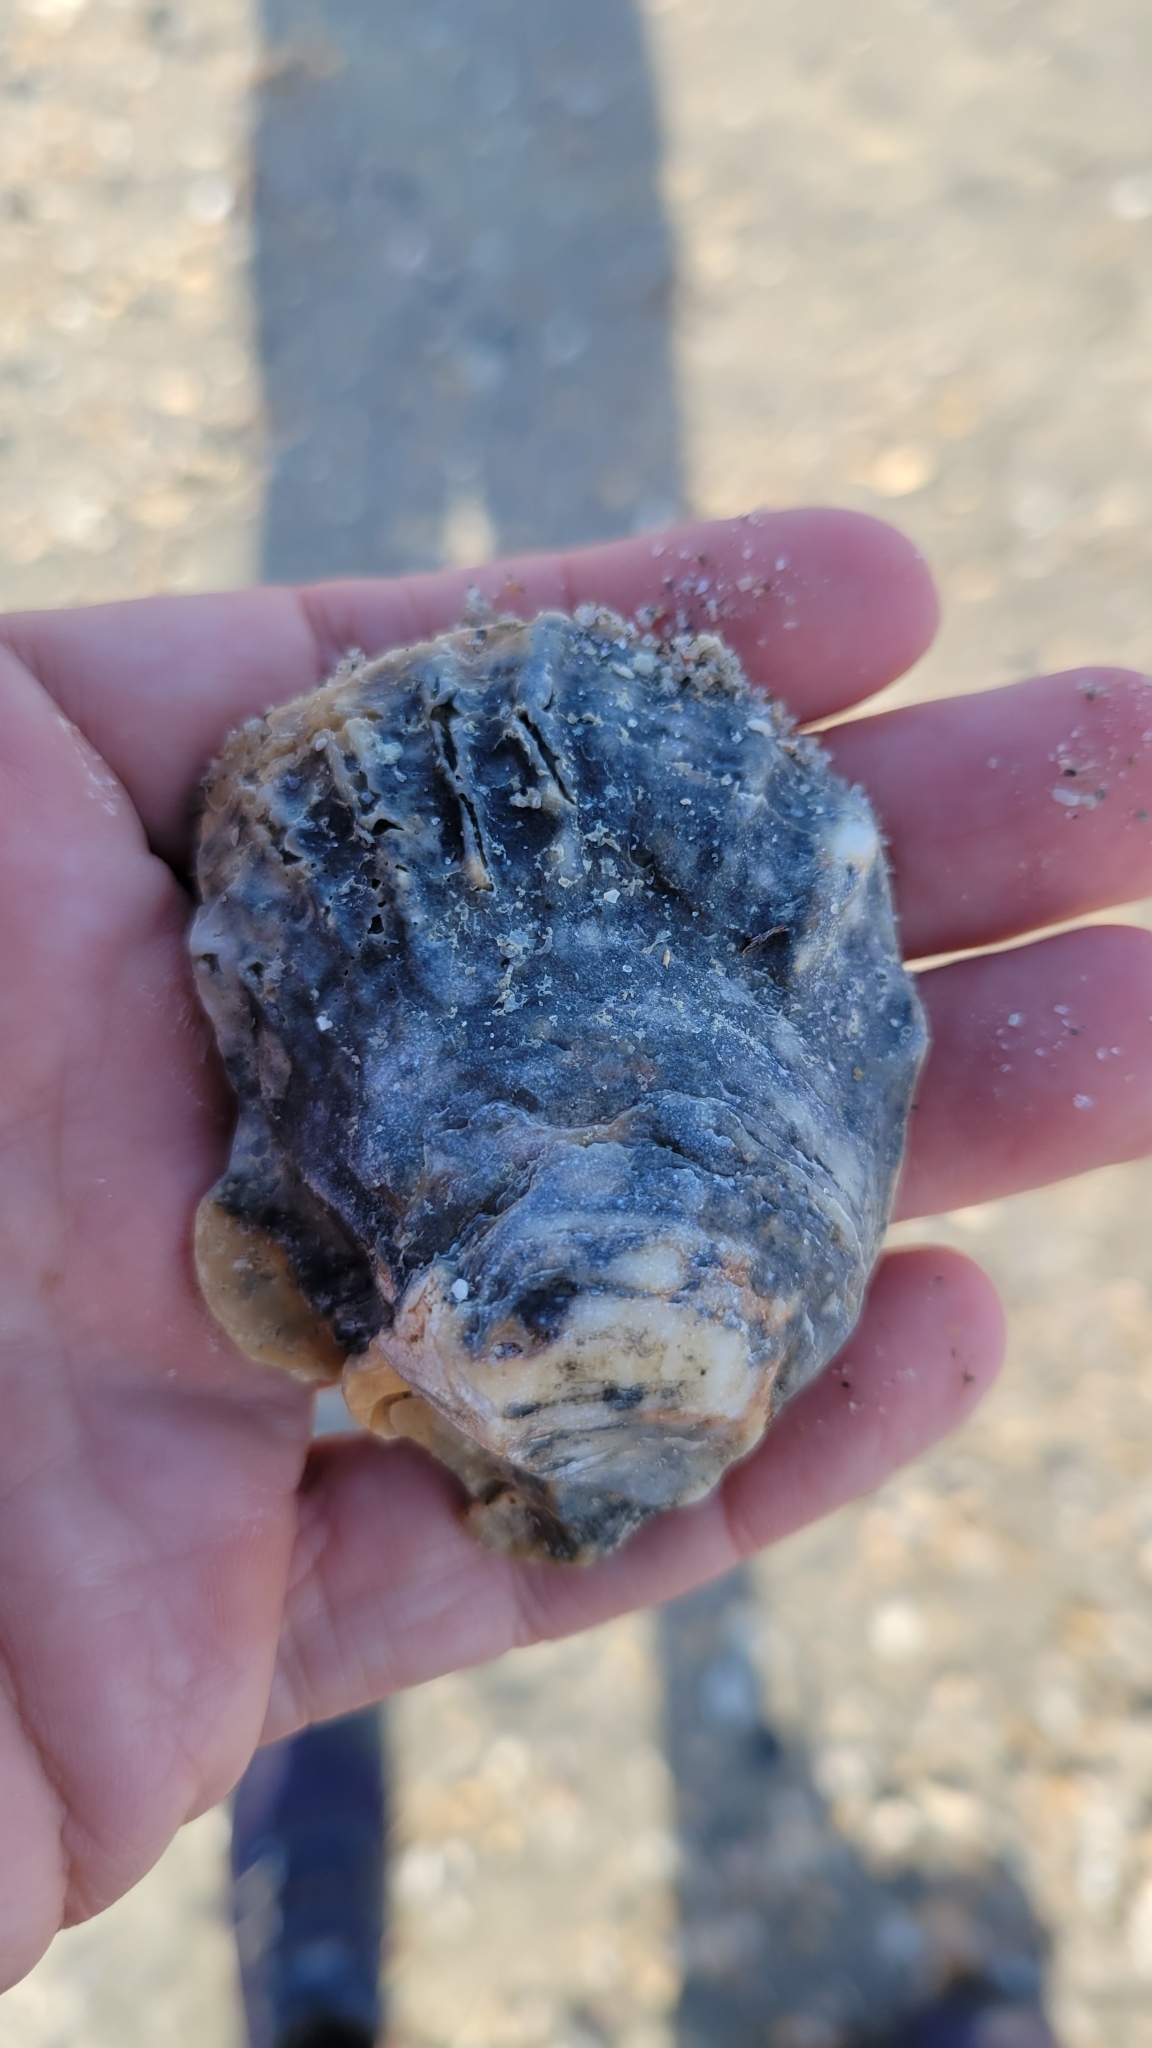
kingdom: Animalia
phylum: Mollusca
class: Bivalvia
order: Ostreida
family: Ostreidae
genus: Crassostrea
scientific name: Crassostrea virginica
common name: American oyster
